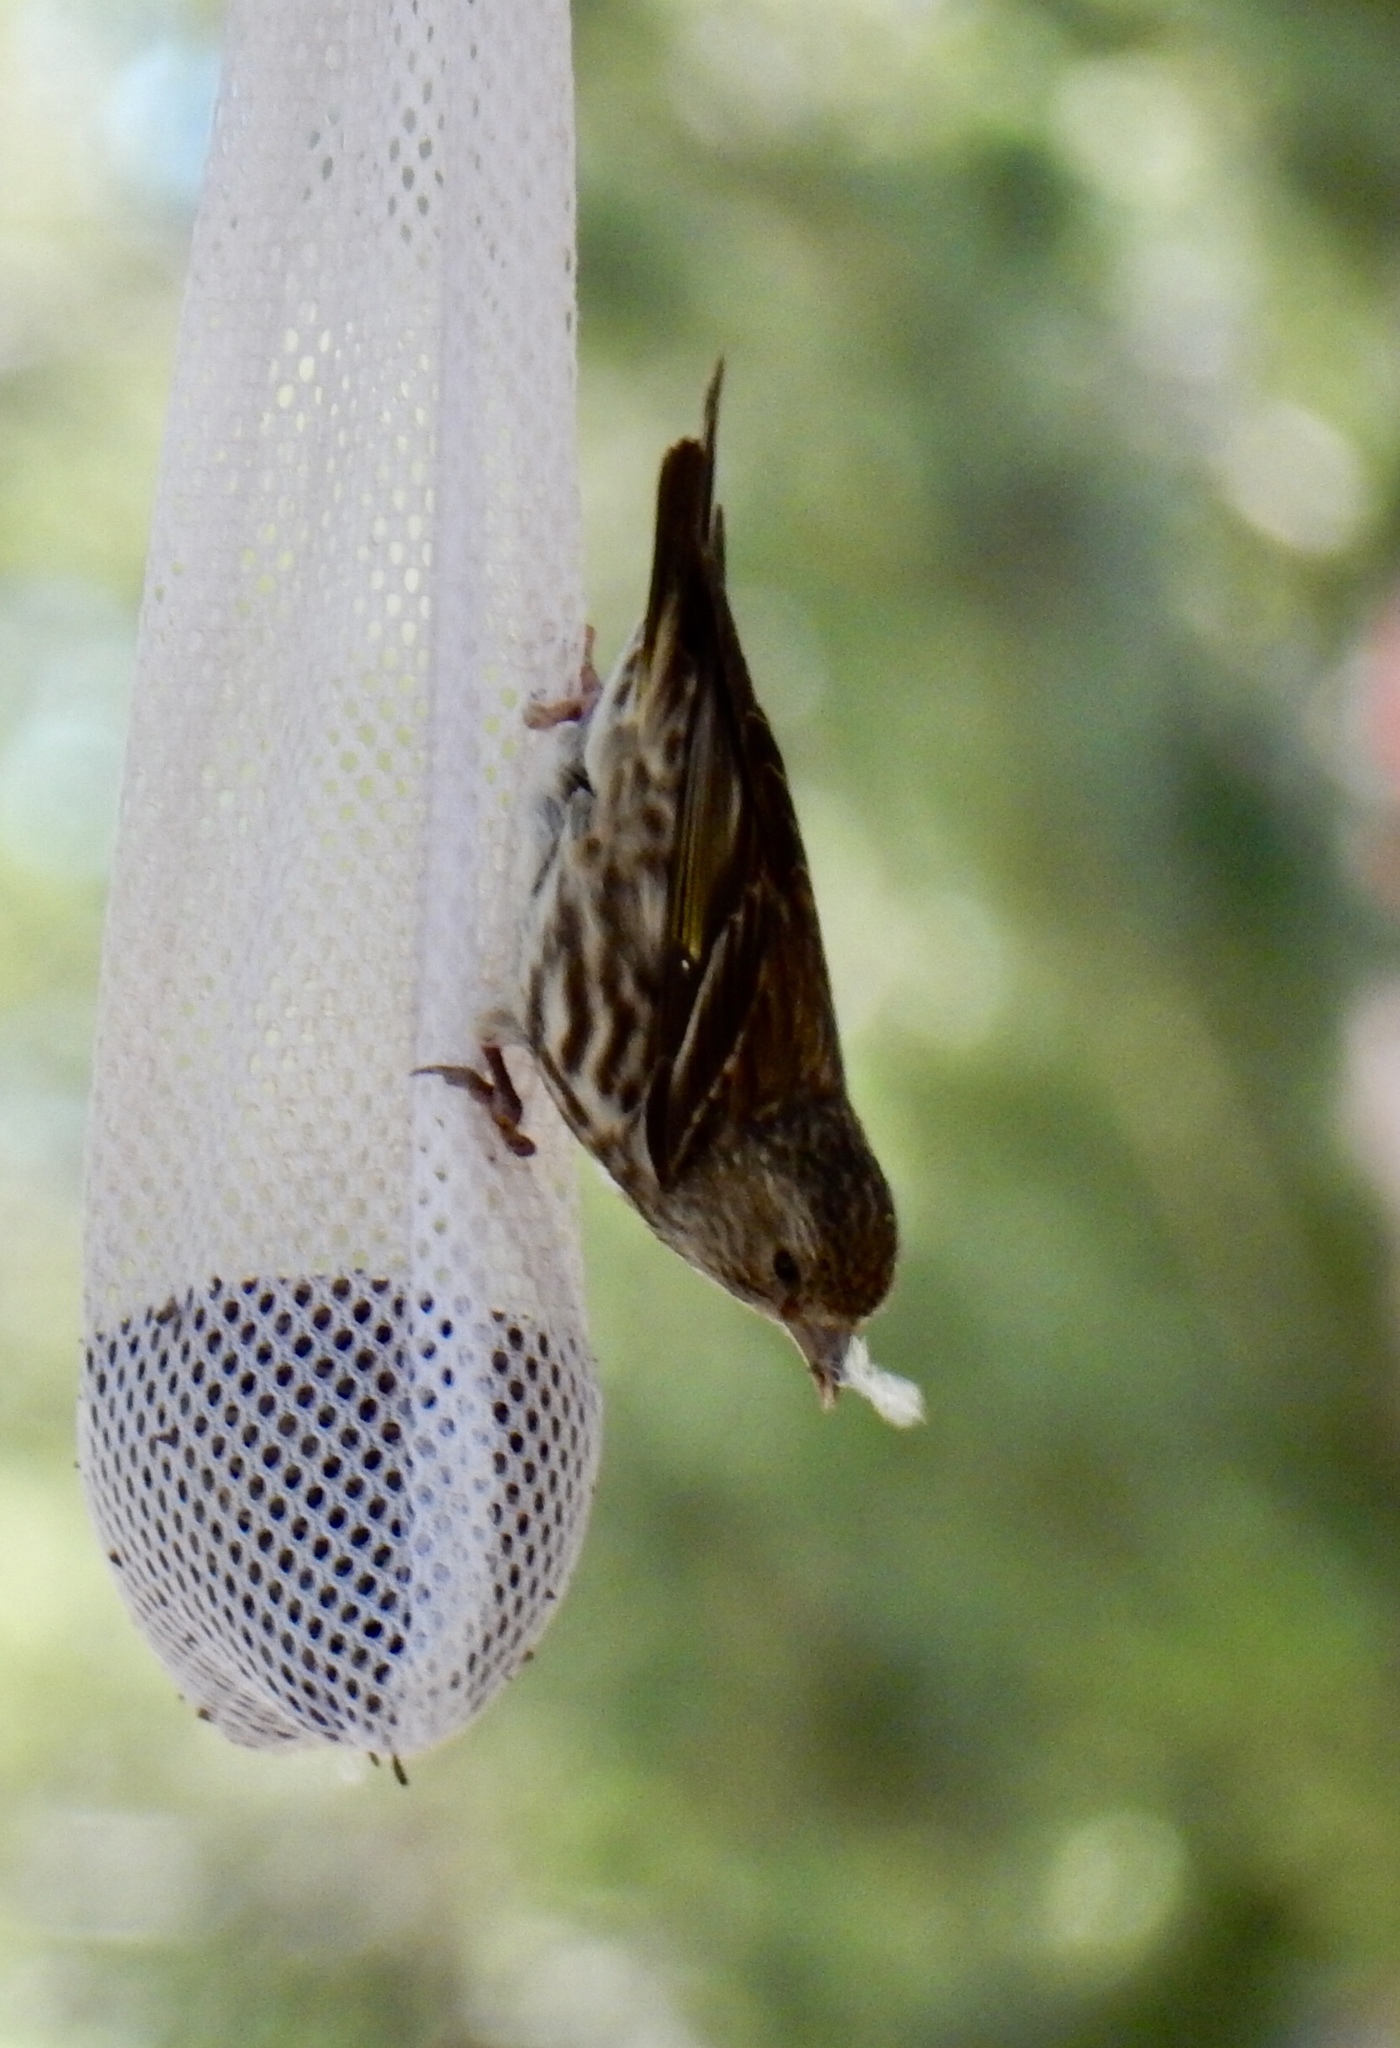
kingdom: Animalia
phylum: Chordata
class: Aves
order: Passeriformes
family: Fringillidae
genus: Spinus
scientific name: Spinus pinus
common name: Pine siskin
